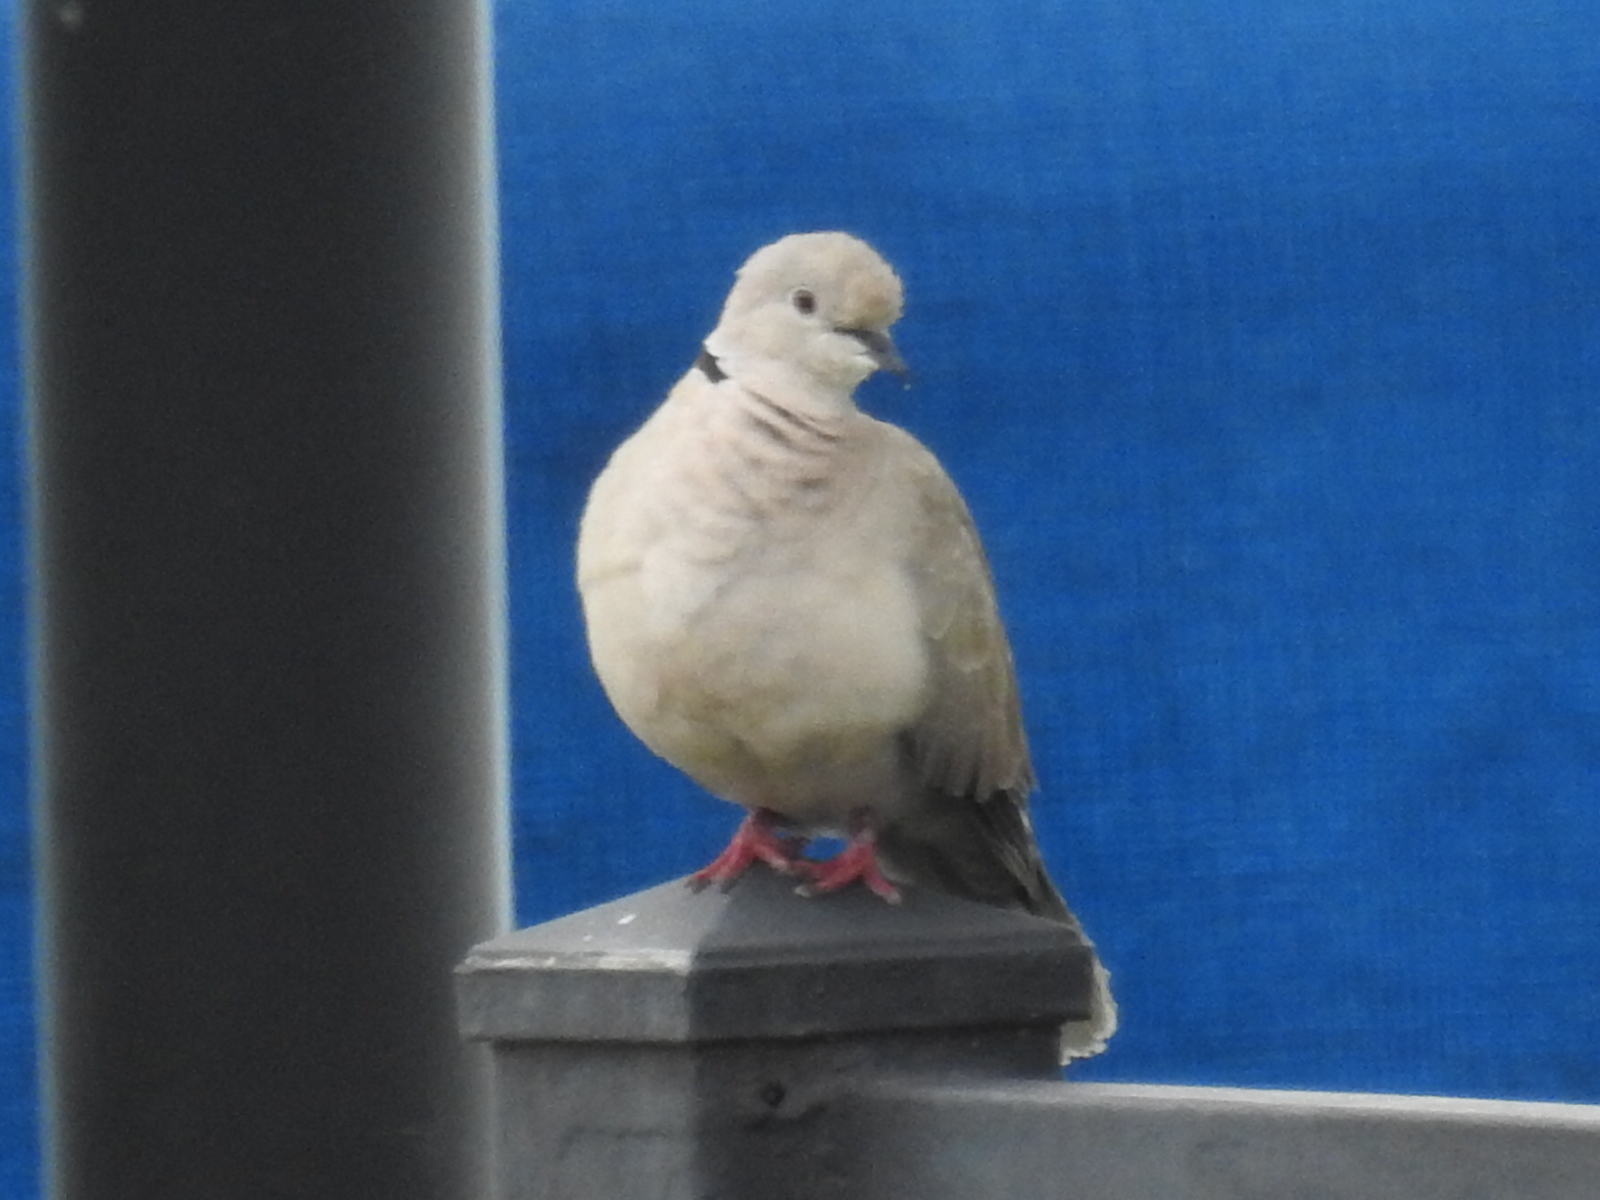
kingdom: Animalia
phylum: Chordata
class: Aves
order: Columbiformes
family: Columbidae
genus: Streptopelia
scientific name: Streptopelia decaocto
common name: Eurasian collared dove
